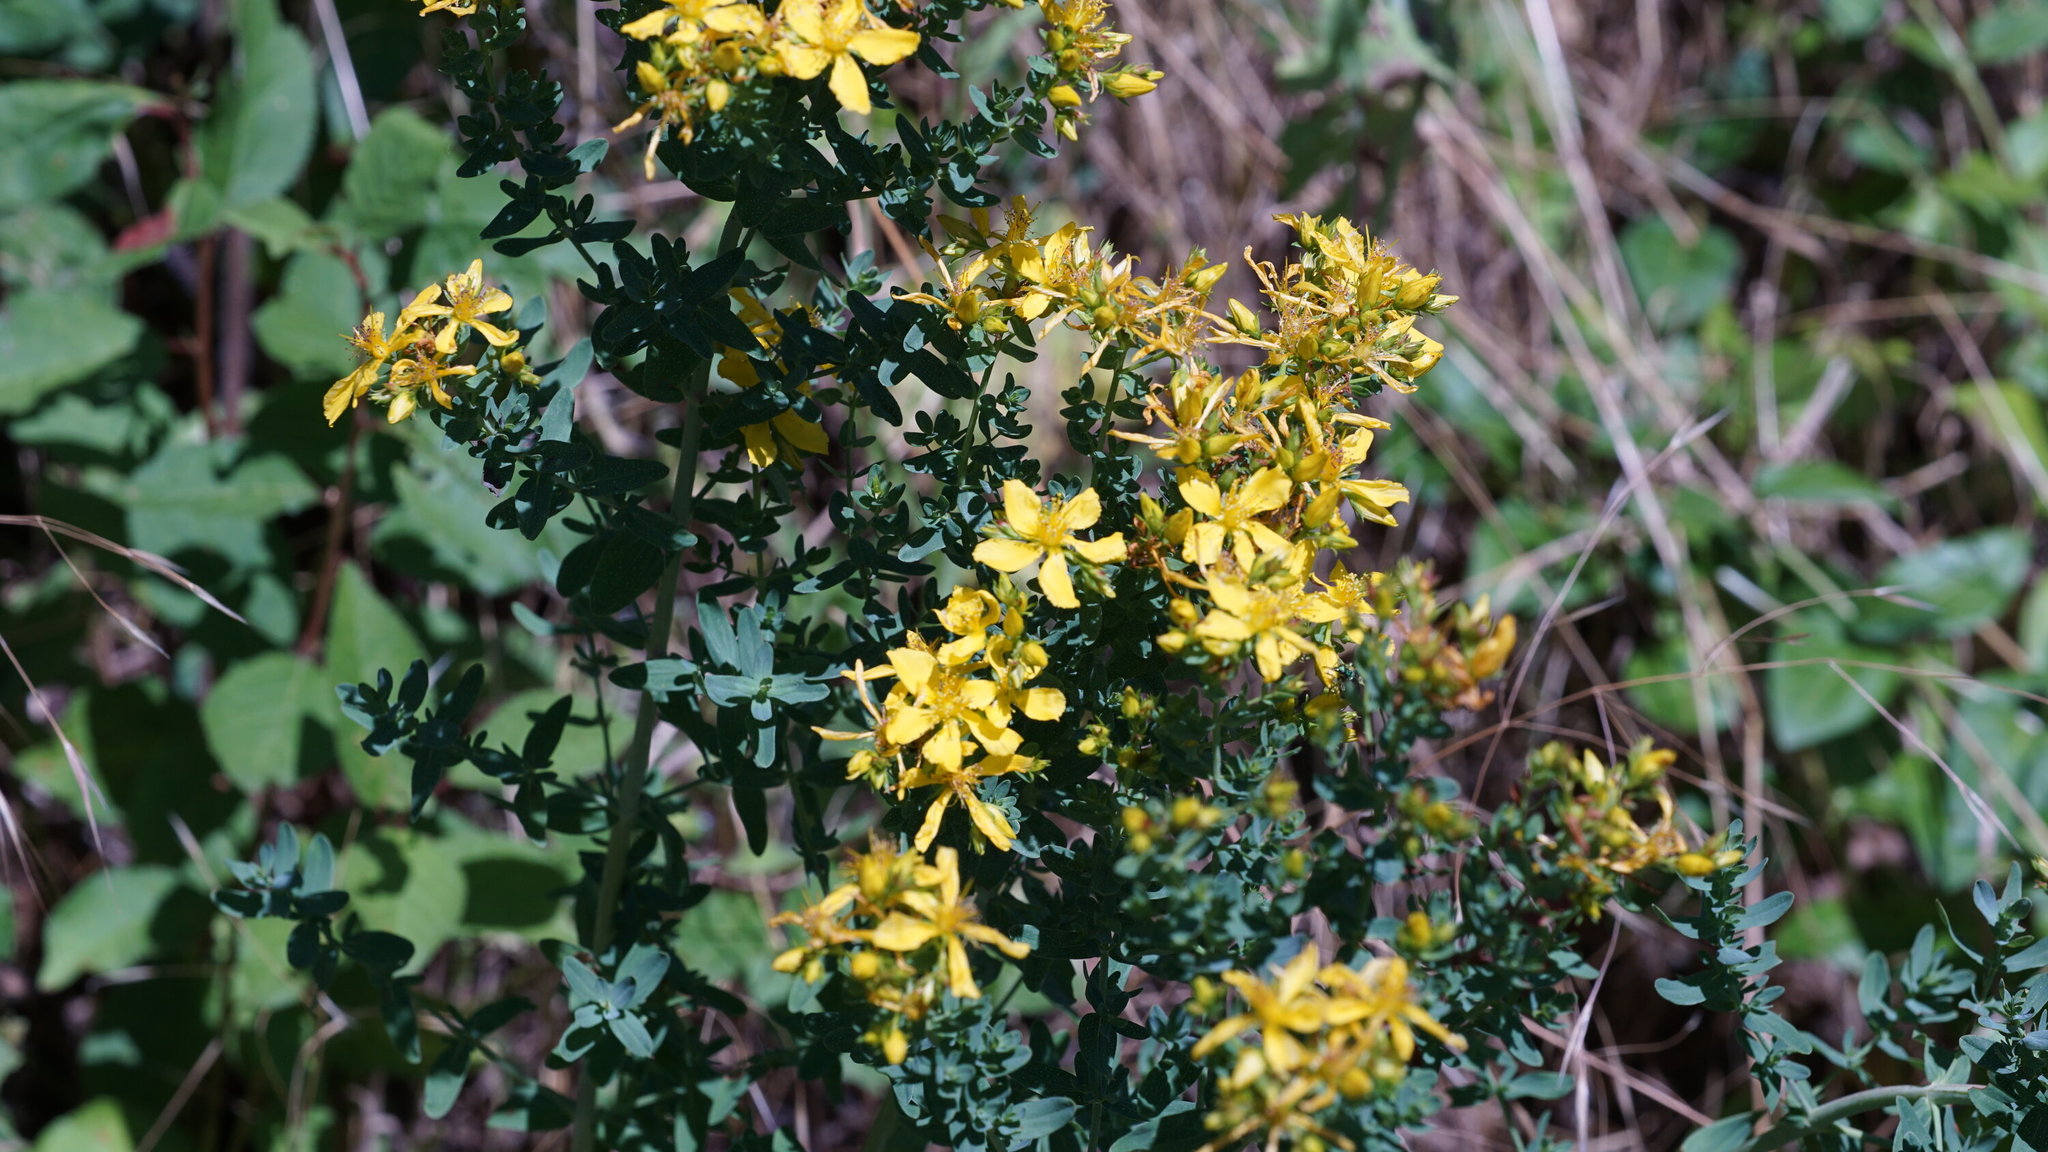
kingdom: Plantae
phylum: Tracheophyta
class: Magnoliopsida
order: Malpighiales
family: Hypericaceae
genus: Hypericum
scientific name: Hypericum perforatum
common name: Common st. johnswort
